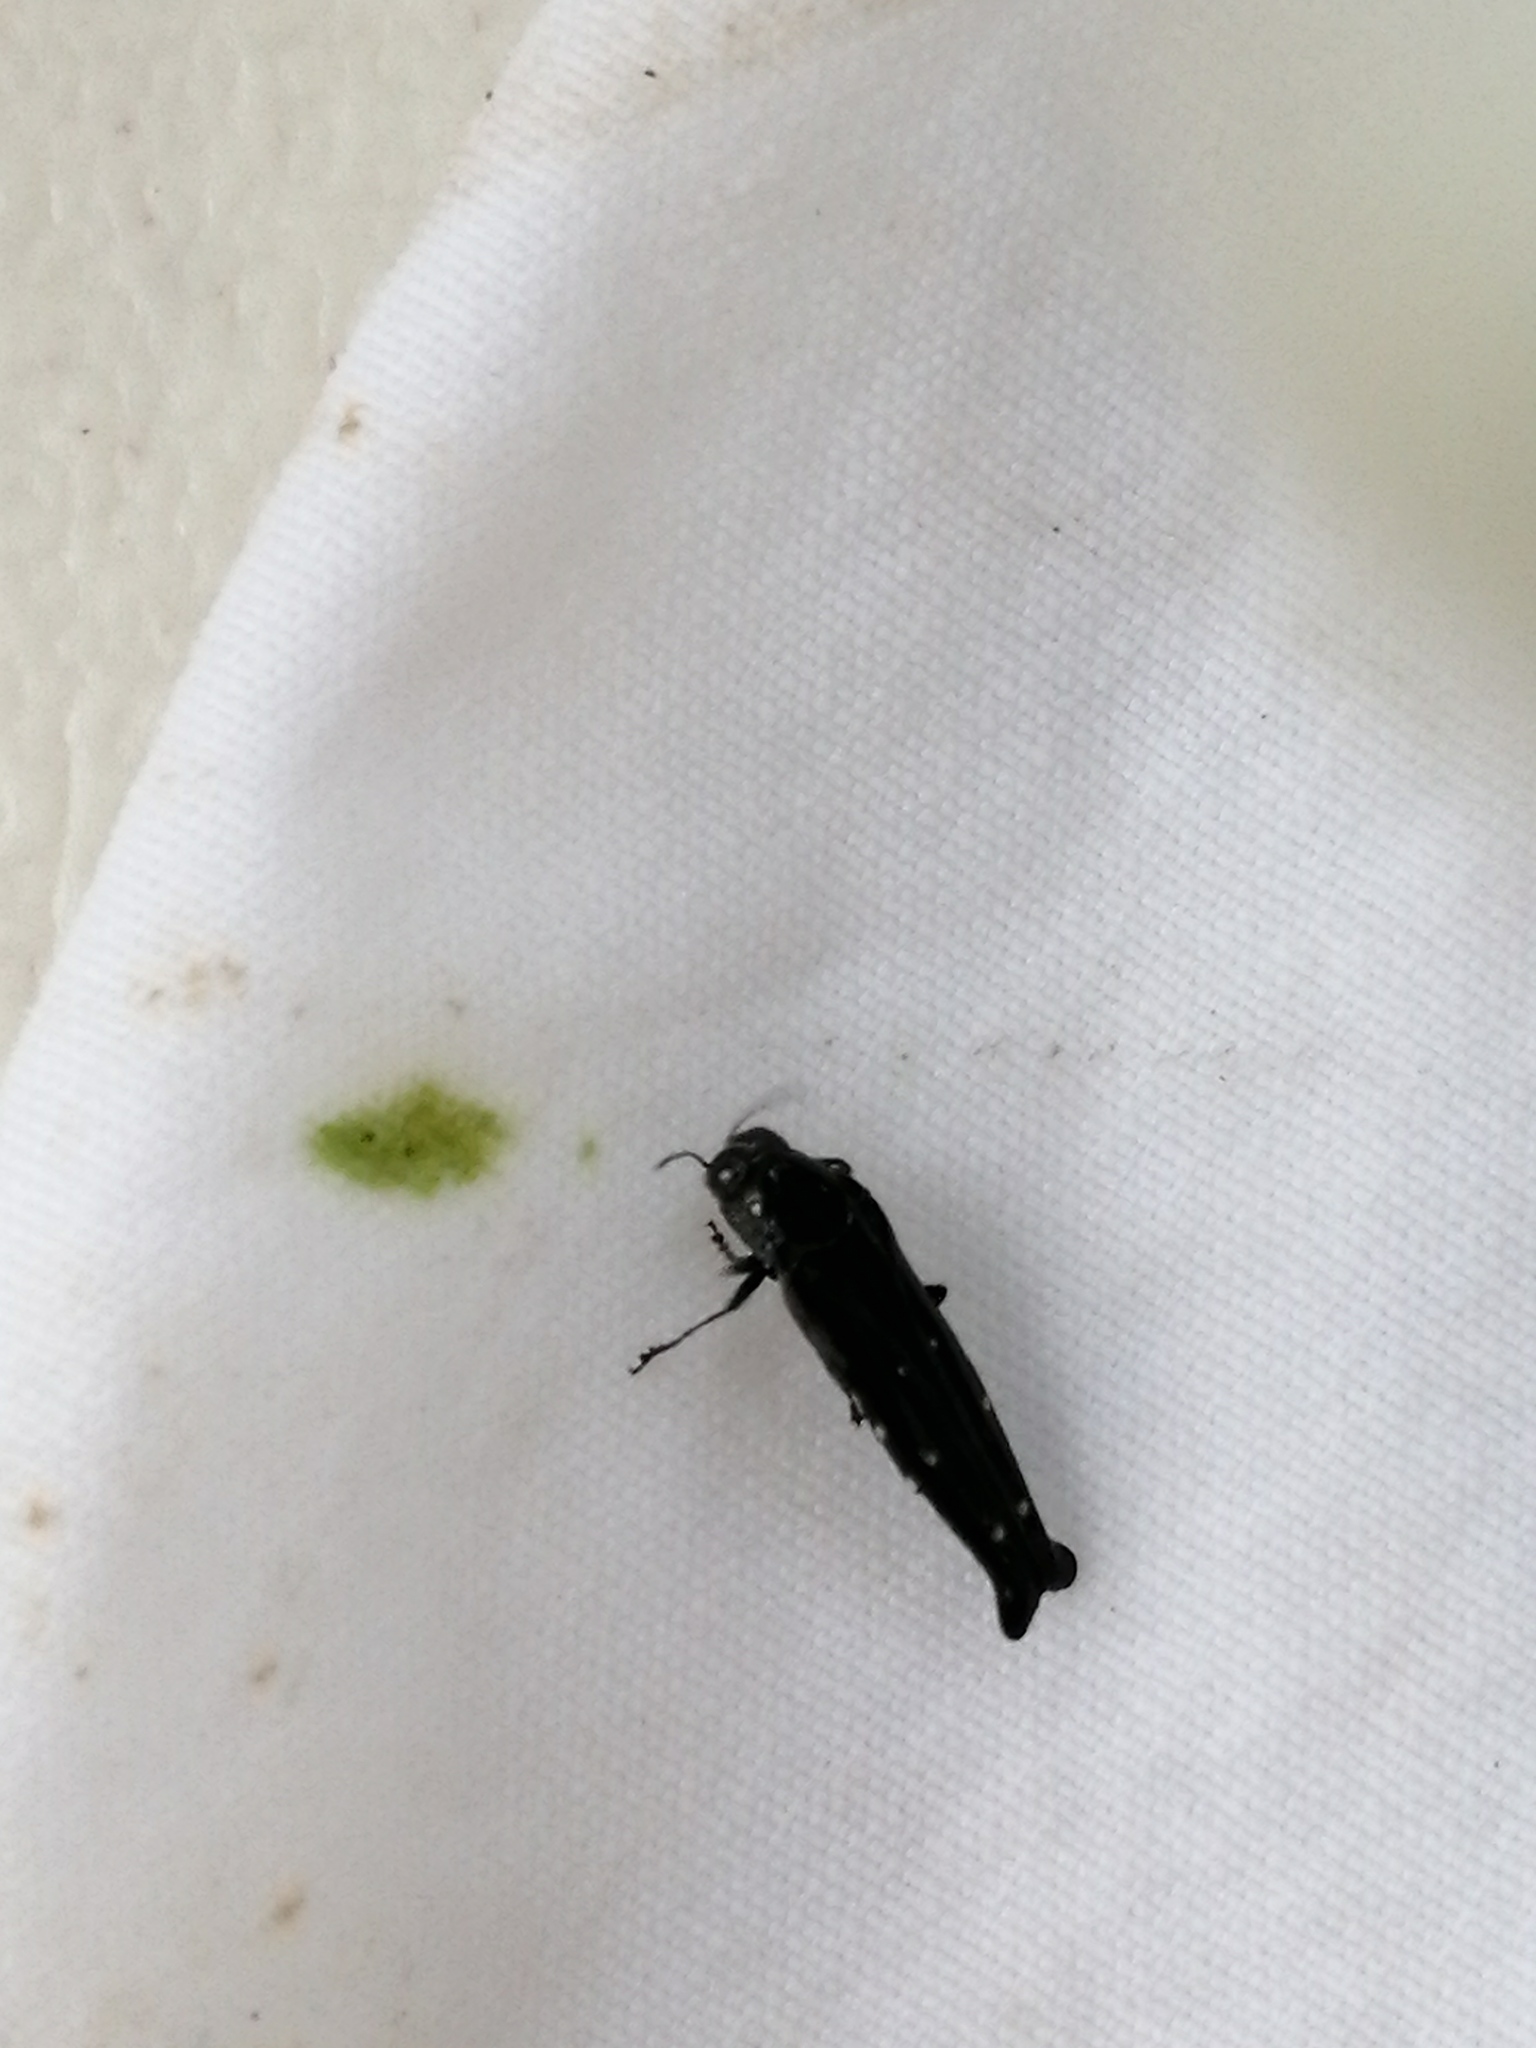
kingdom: Animalia
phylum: Arthropoda
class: Insecta
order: Coleoptera
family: Buprestidae
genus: Agrilus
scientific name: Agrilus squalus
